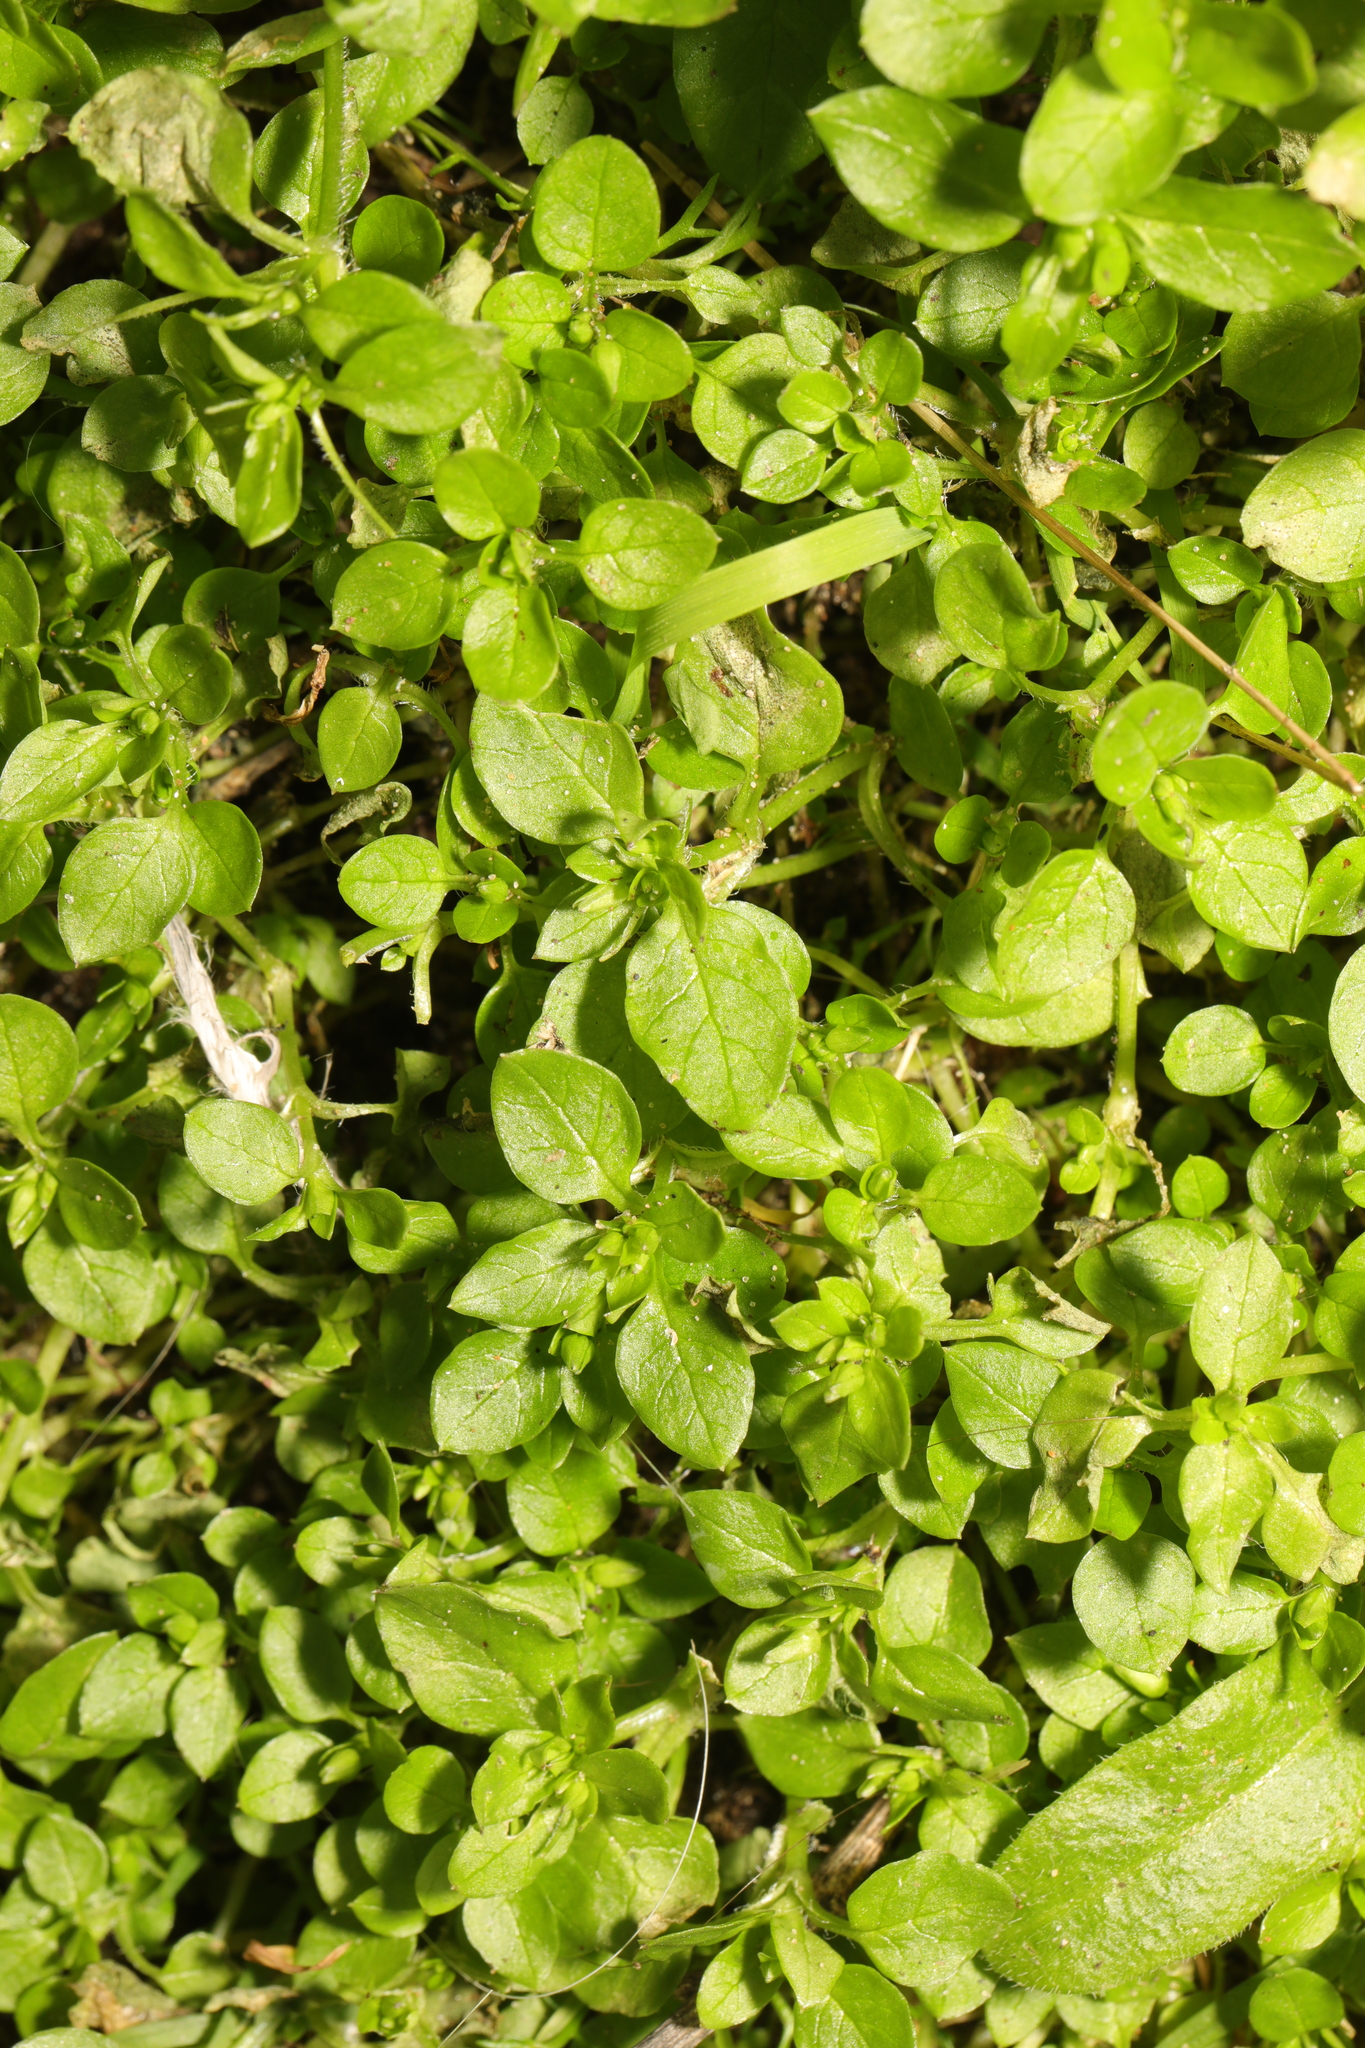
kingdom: Plantae
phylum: Tracheophyta
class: Magnoliopsida
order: Caryophyllales
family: Caryophyllaceae
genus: Stellaria
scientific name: Stellaria media
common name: Common chickweed
